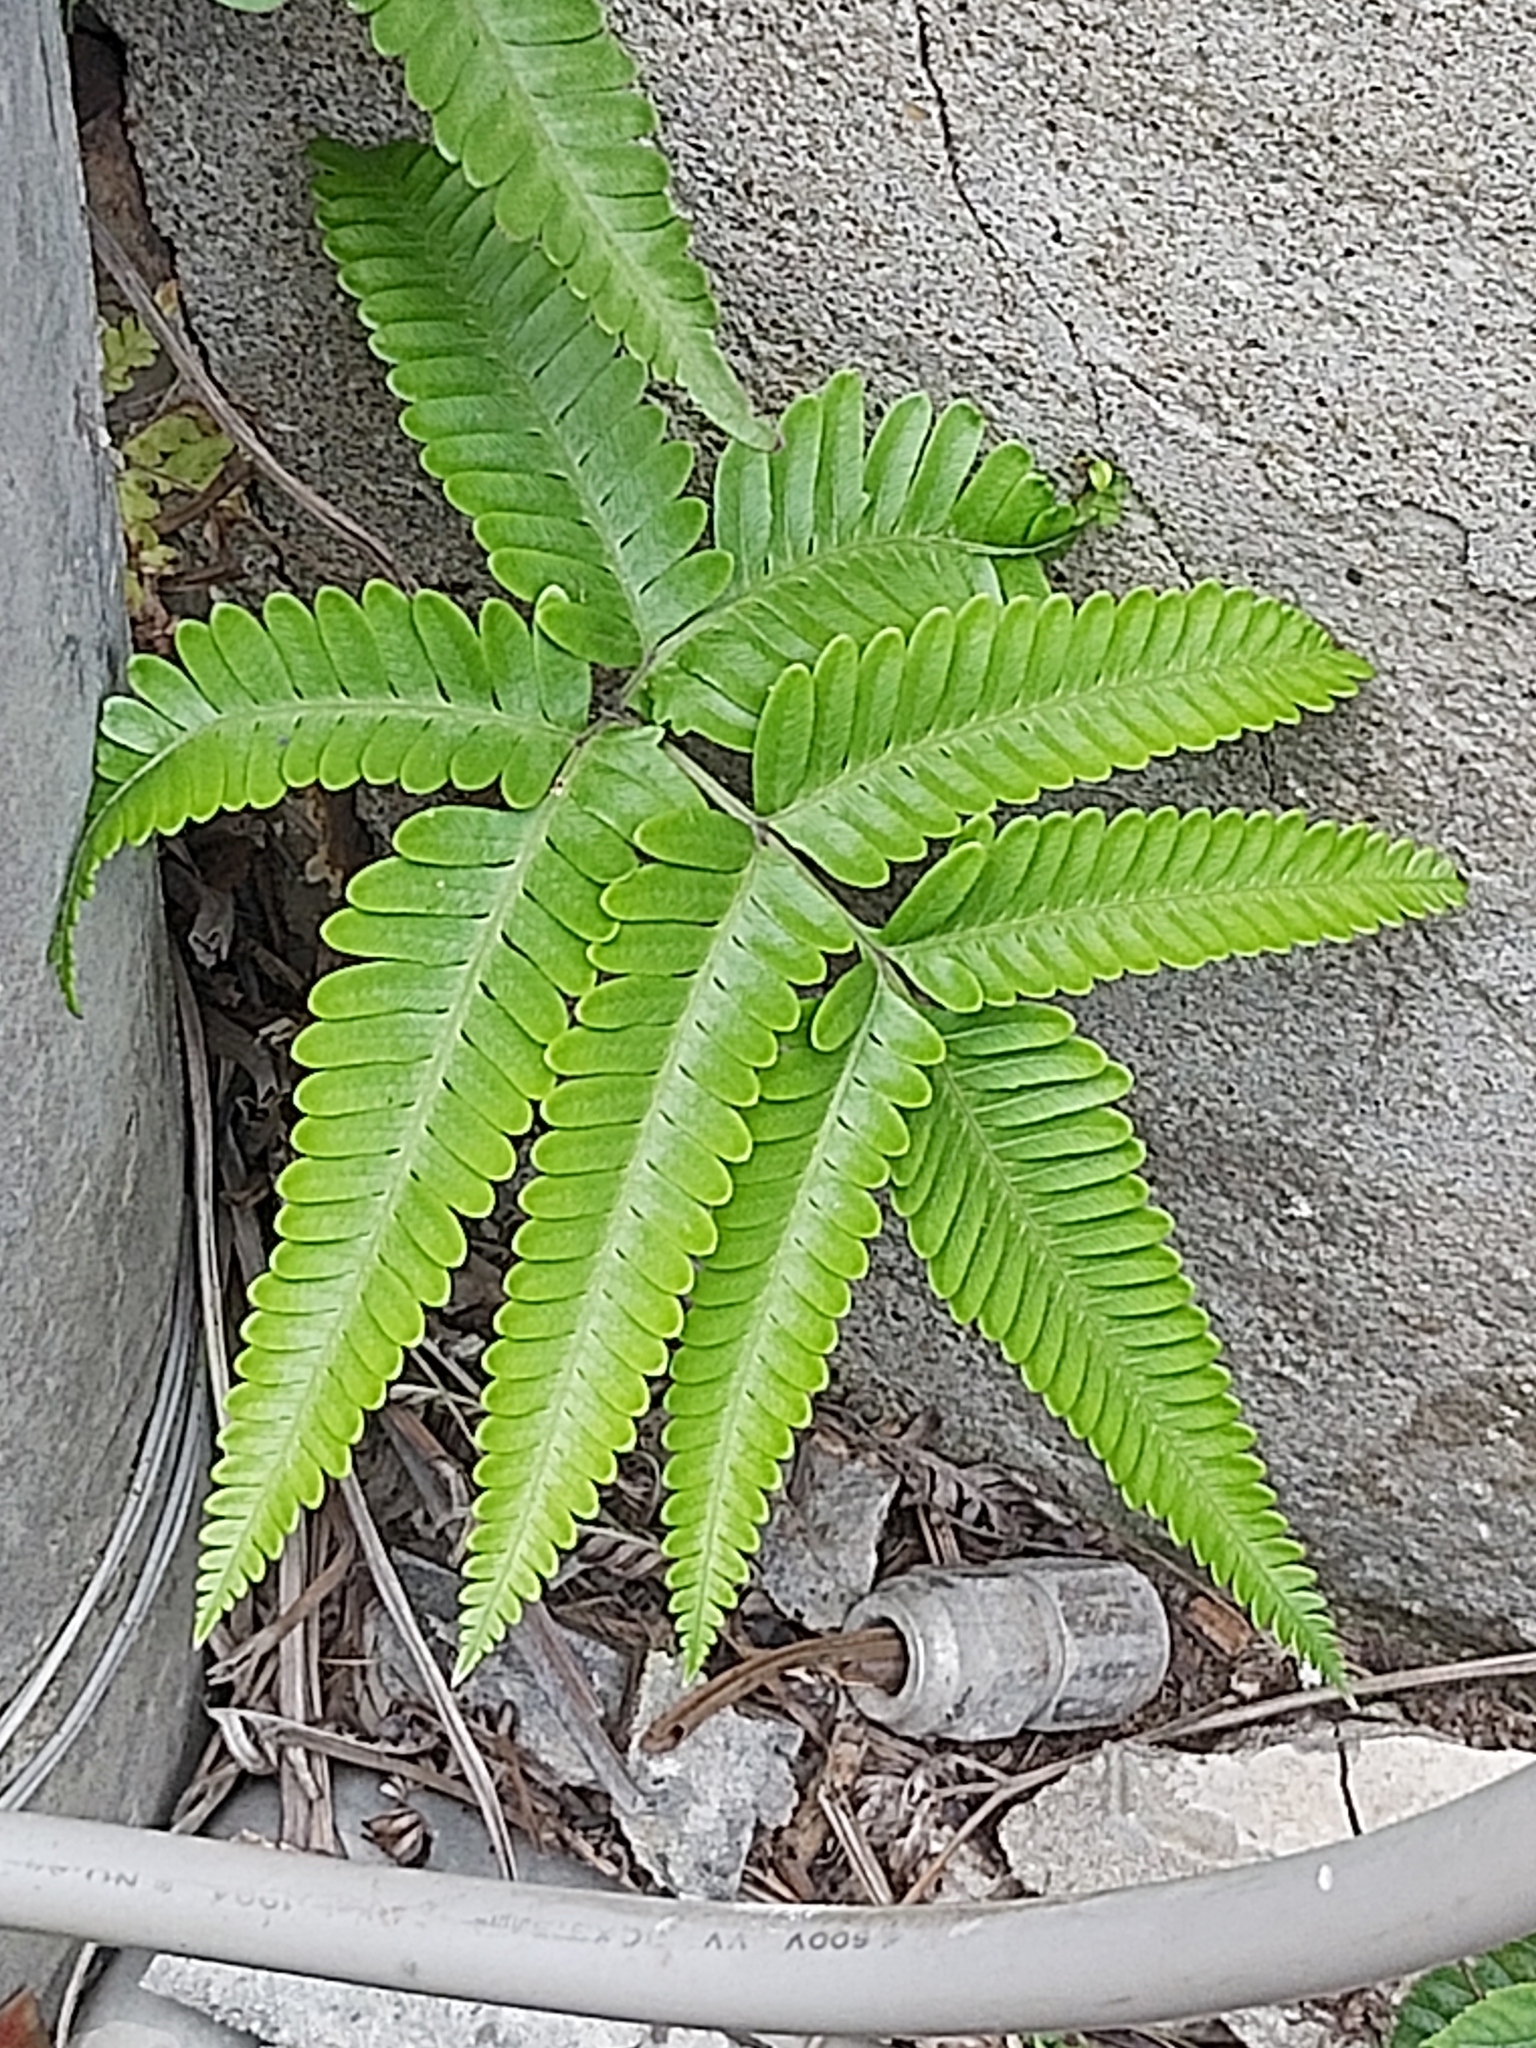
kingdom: Plantae
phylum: Tracheophyta
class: Polypodiopsida
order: Polypodiales
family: Pteridaceae
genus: Pteris
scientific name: Pteris fauriei
